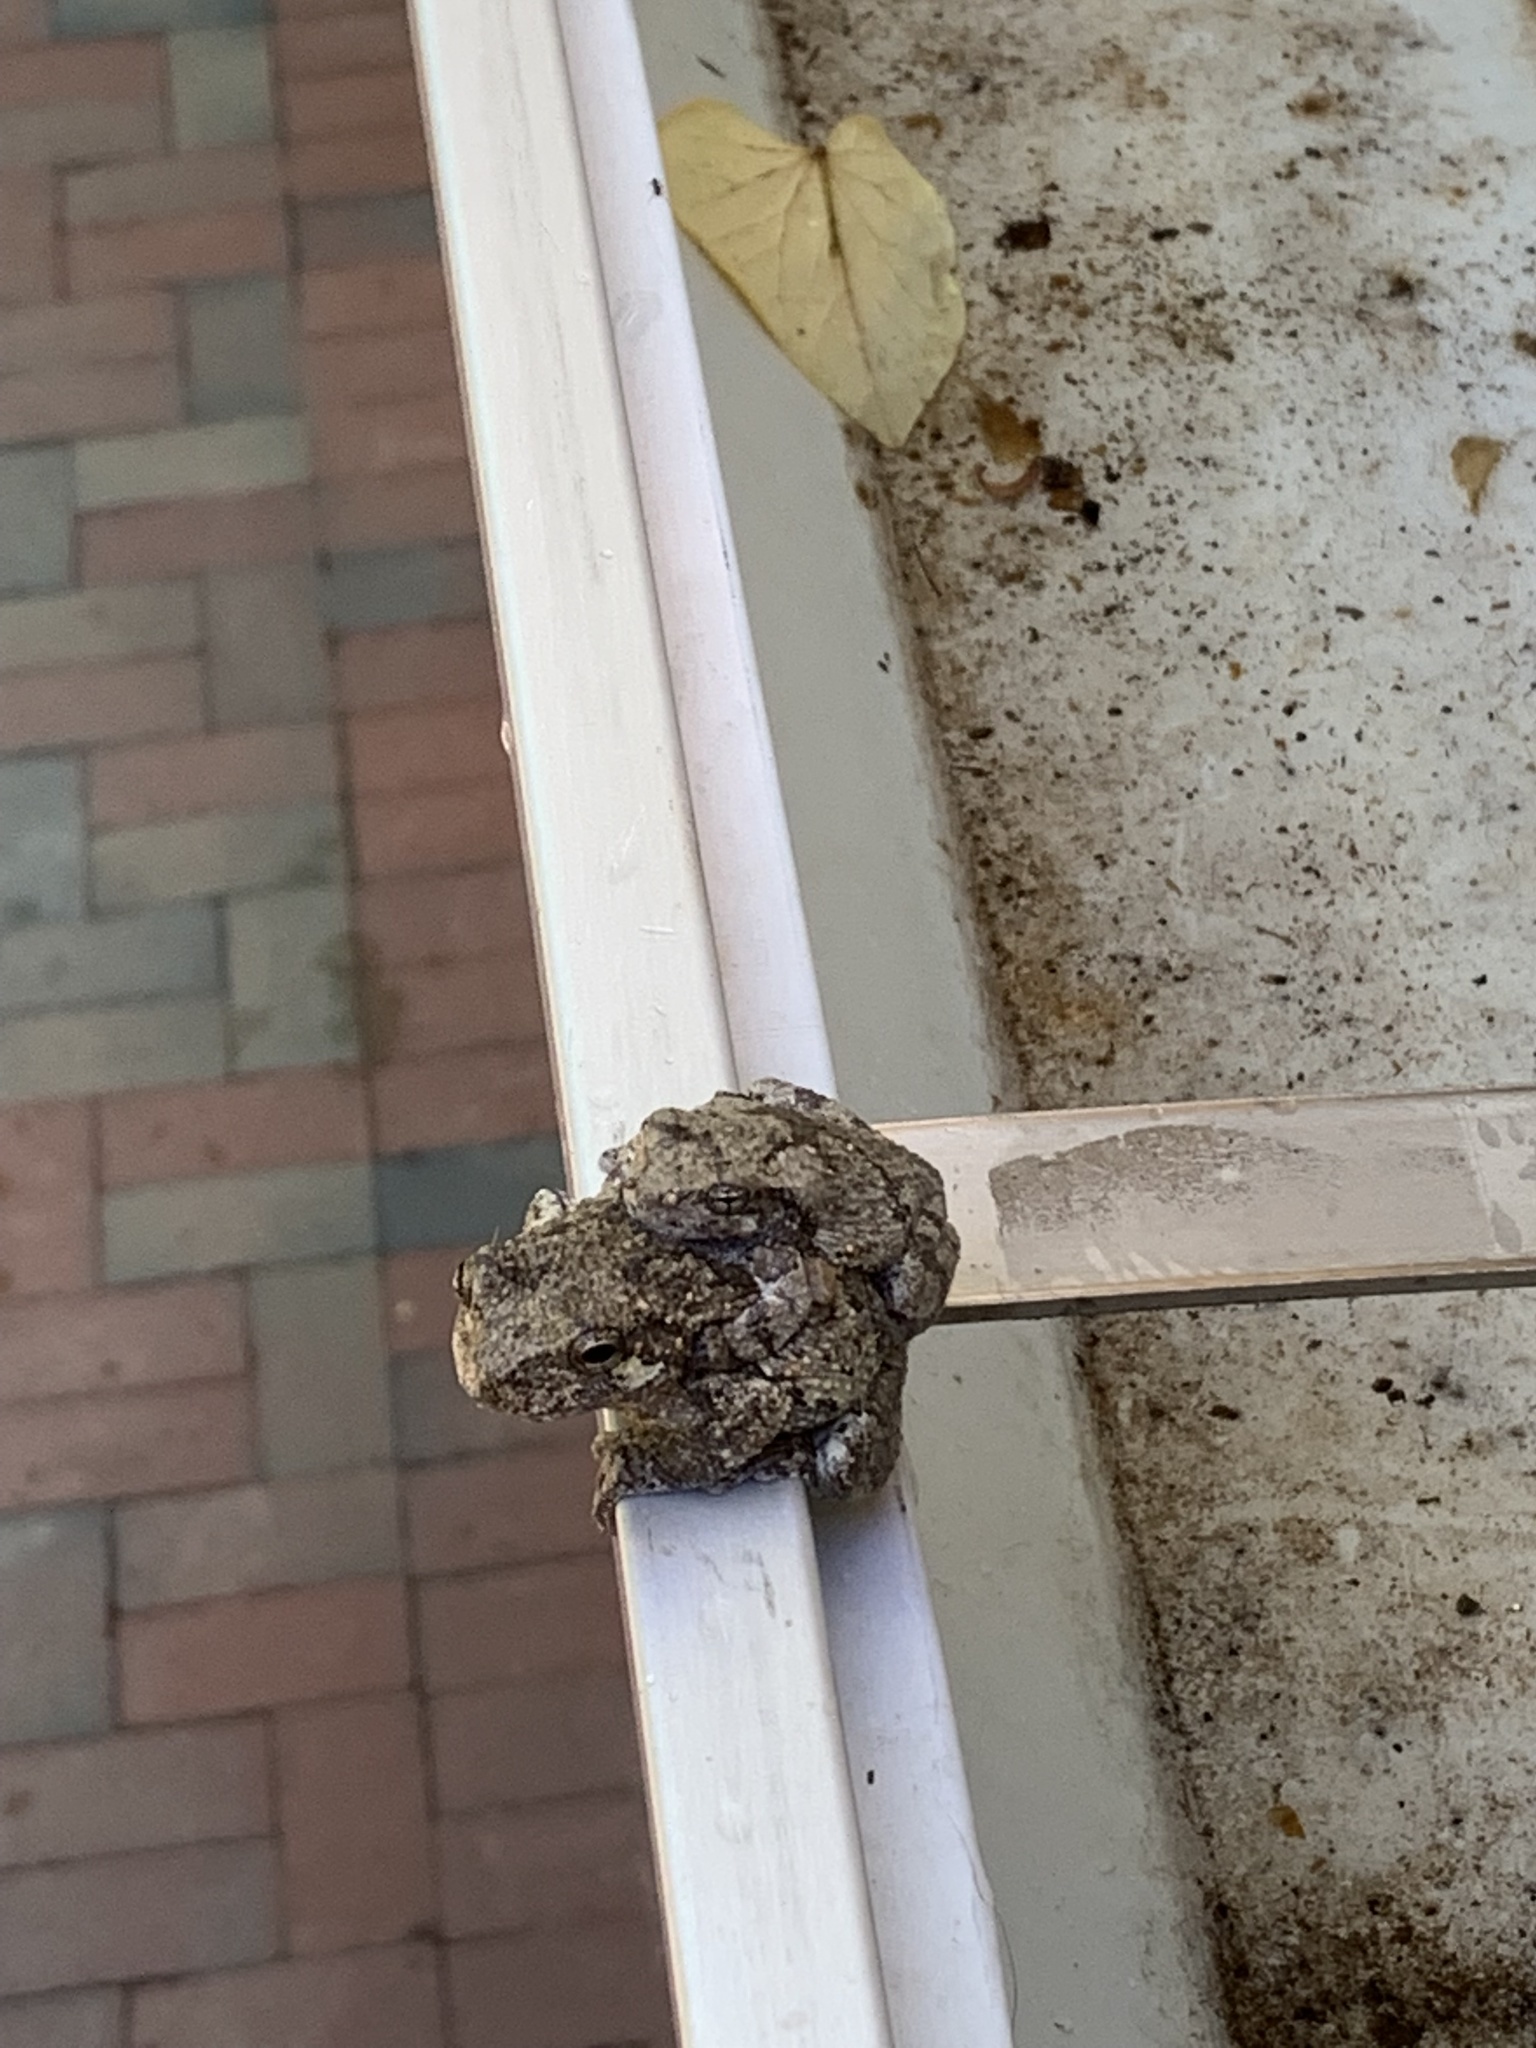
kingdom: Animalia
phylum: Chordata
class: Amphibia
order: Anura
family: Hylidae
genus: Dryophytes
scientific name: Dryophytes chrysoscelis
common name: Cope's gray treefrog
